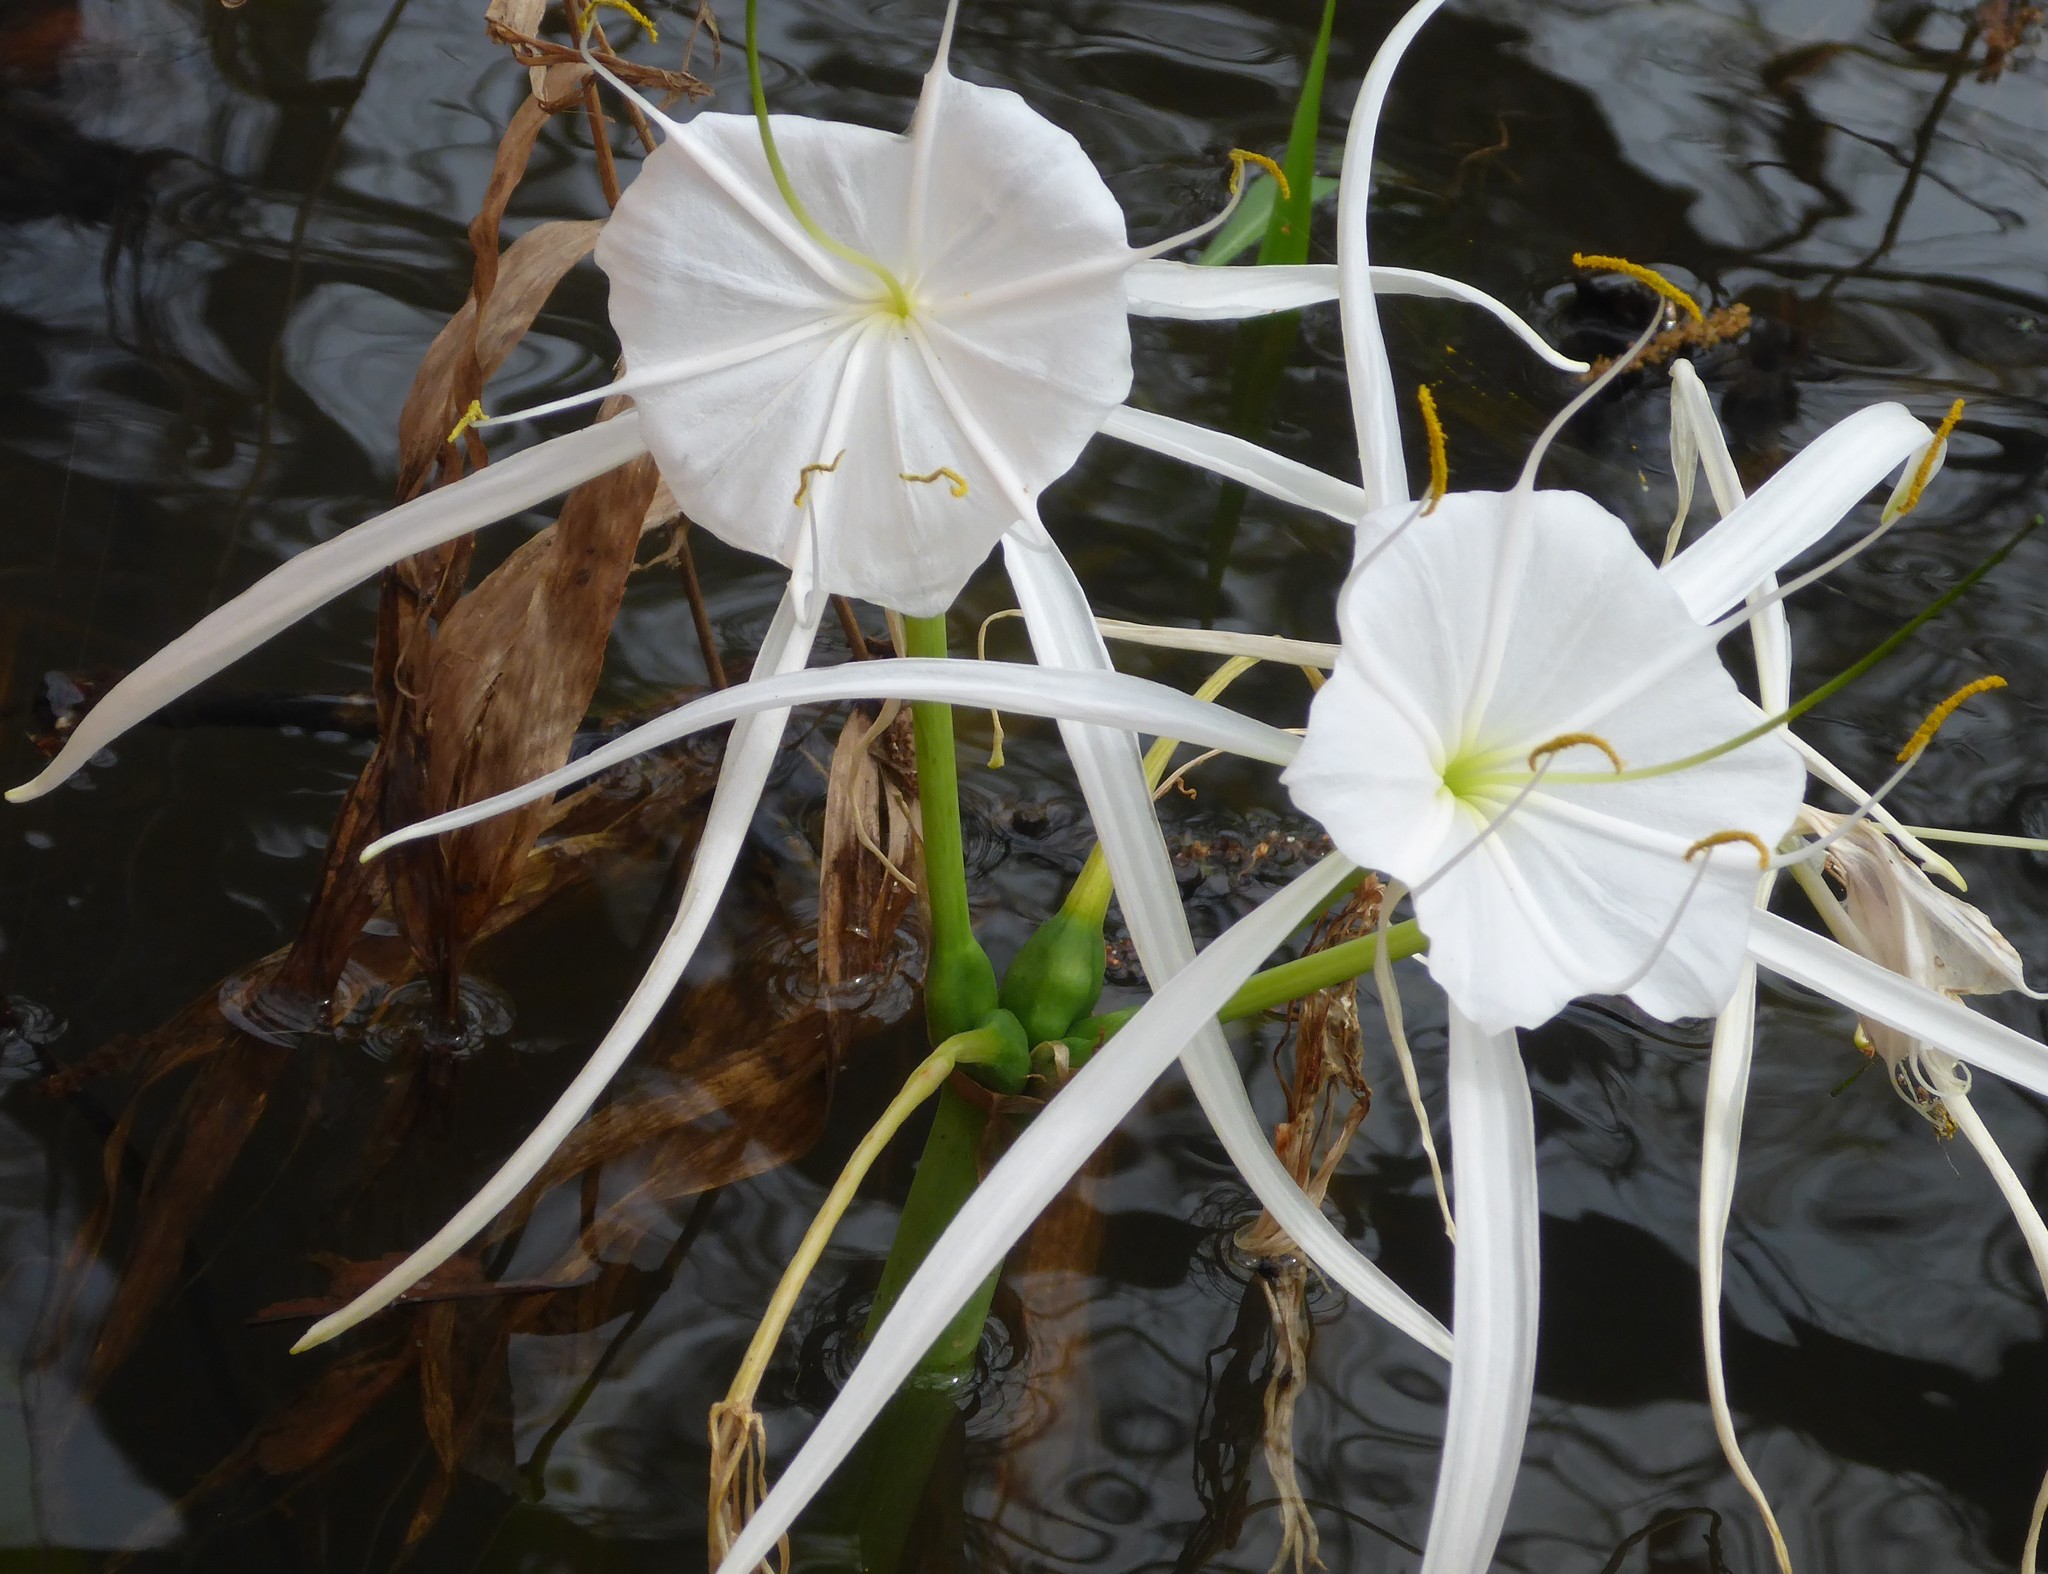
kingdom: Plantae
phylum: Tracheophyta
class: Liliopsida
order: Asparagales
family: Amaryllidaceae
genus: Hymenocallis
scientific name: Hymenocallis franklinensis
